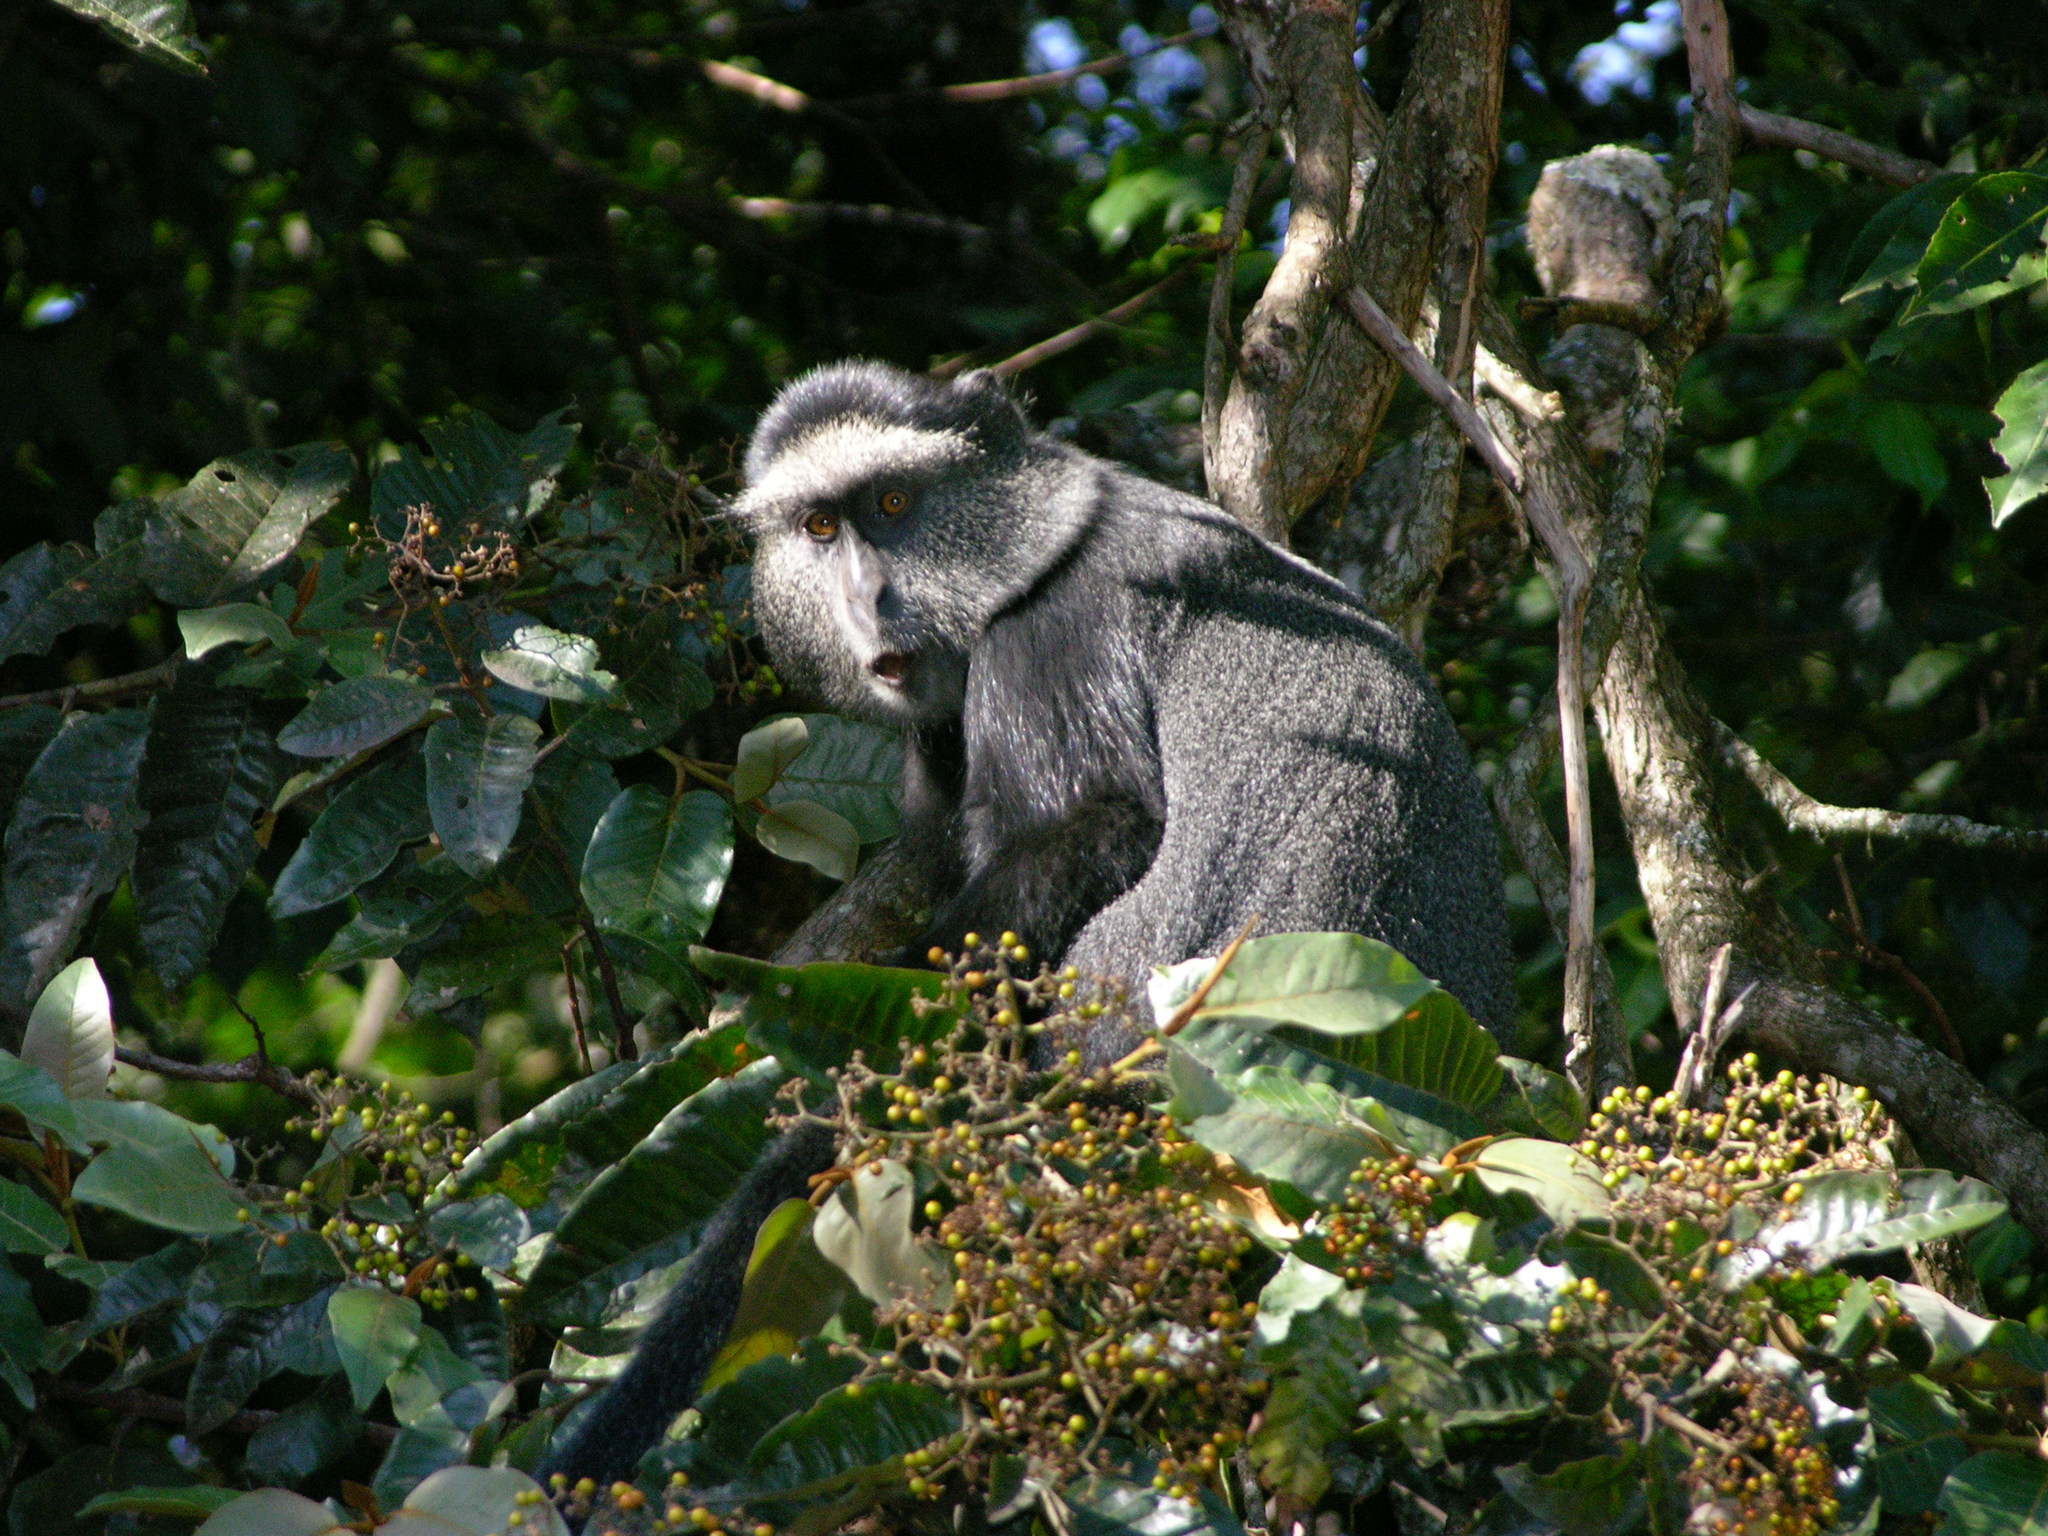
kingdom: Animalia
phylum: Chordata
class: Mammalia
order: Primates
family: Cercopithecidae
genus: Cercopithecus
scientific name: Cercopithecus mitis
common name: Blue monkey
